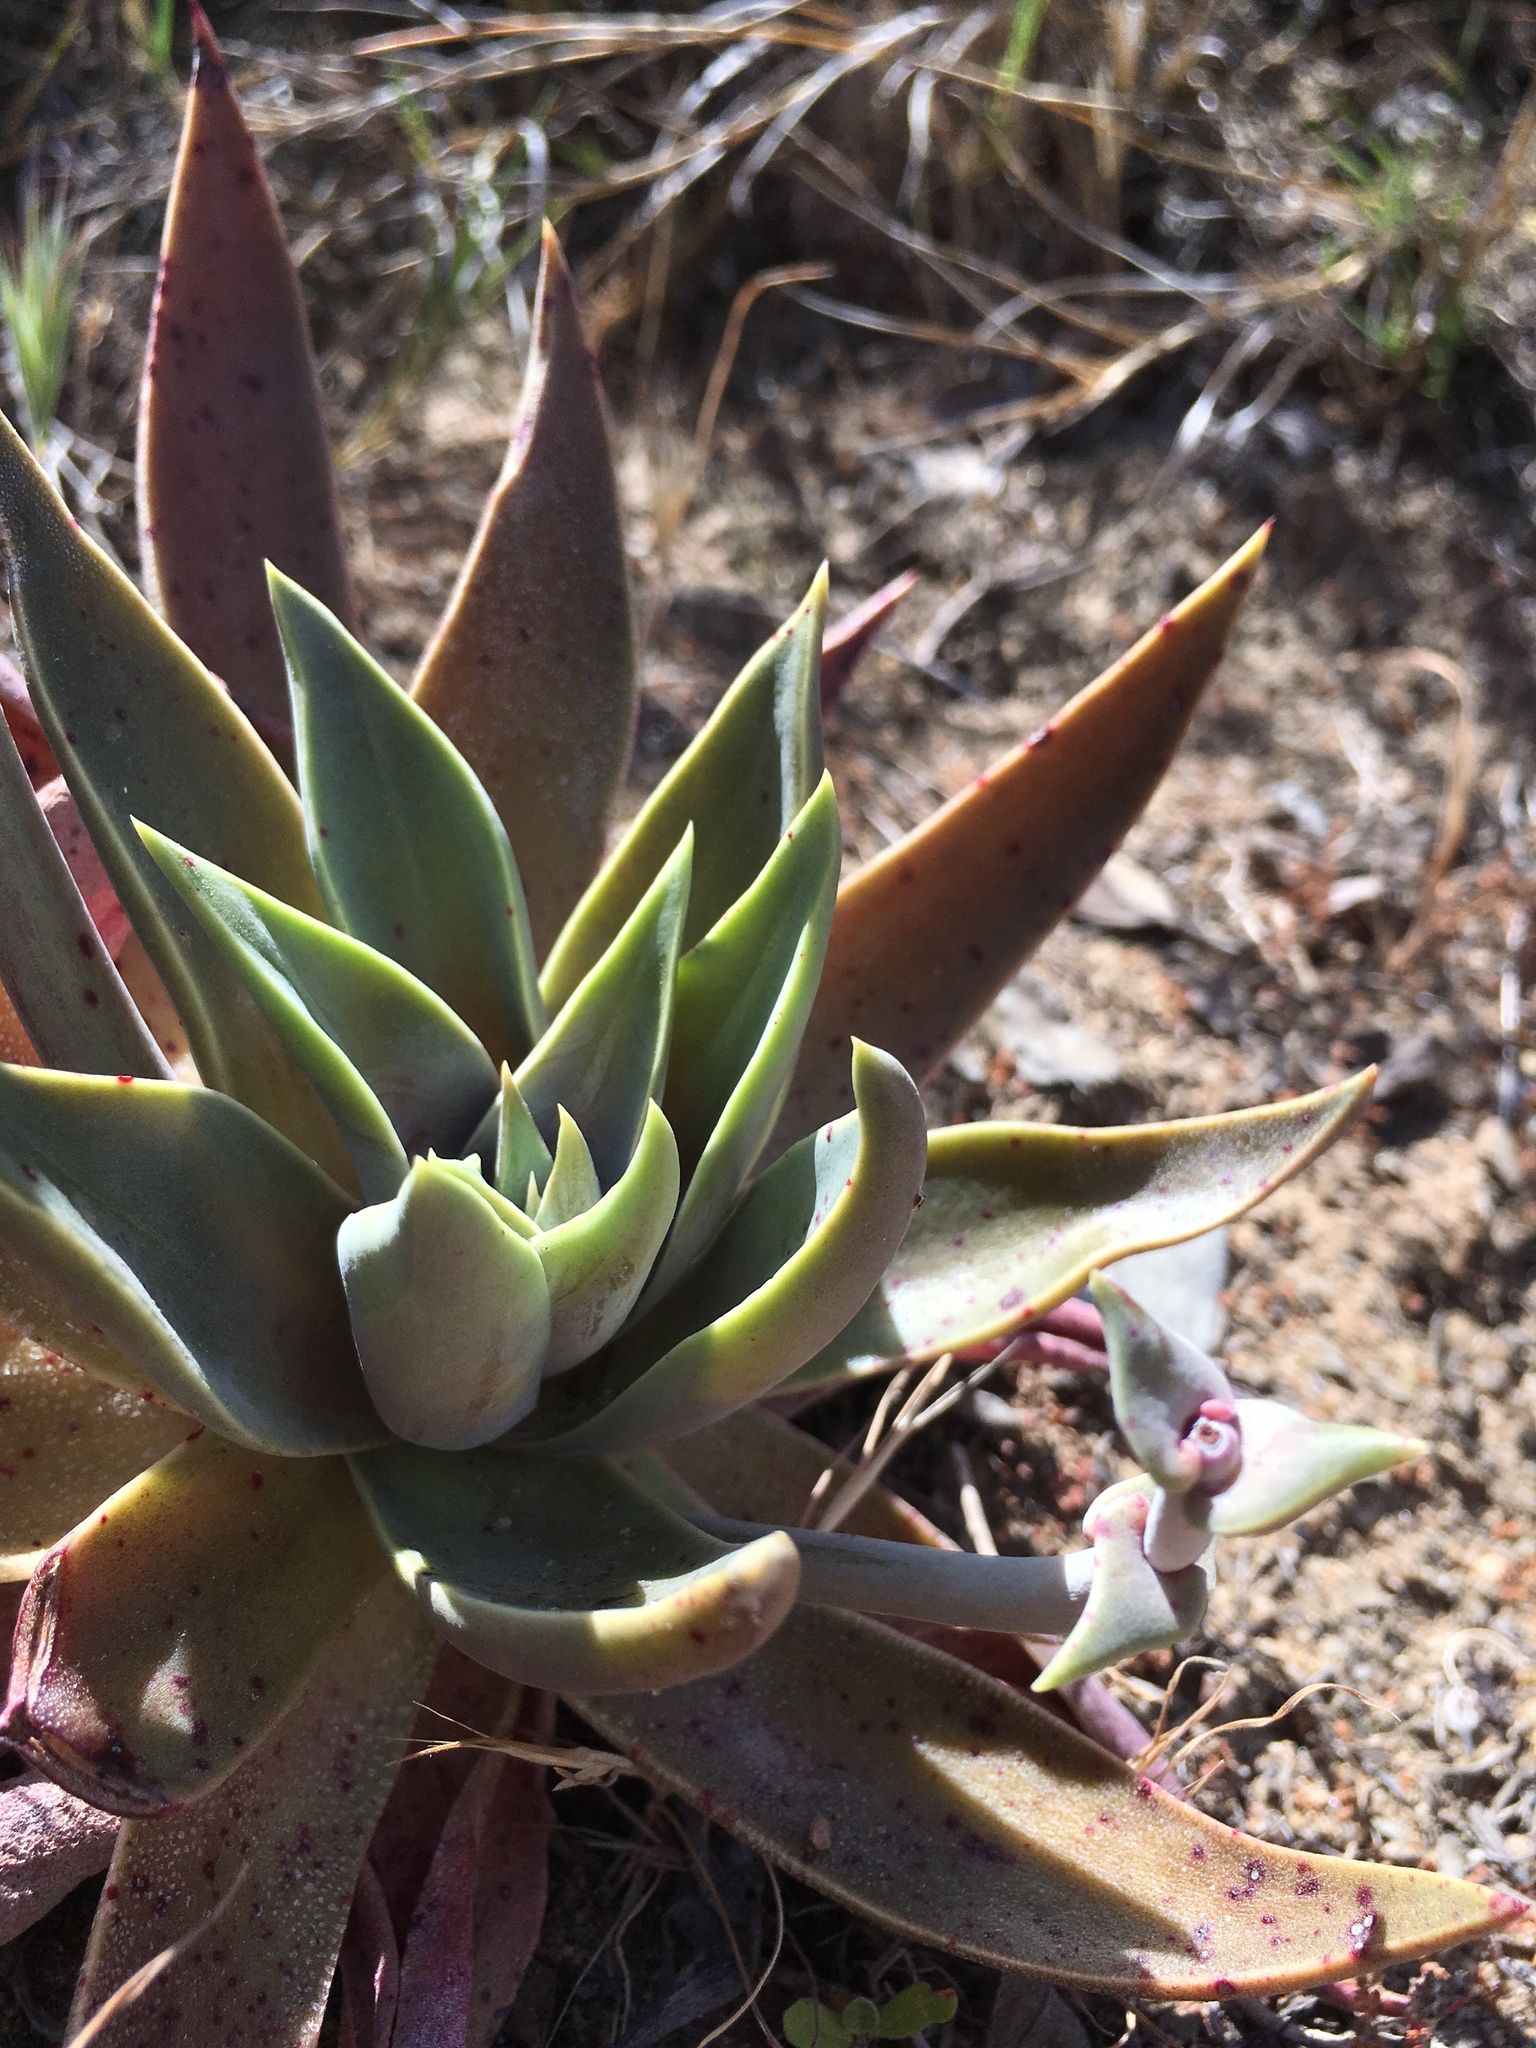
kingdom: Plantae
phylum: Tracheophyta
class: Magnoliopsida
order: Saxifragales
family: Crassulaceae
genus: Dudleya
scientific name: Dudleya lanceolata
